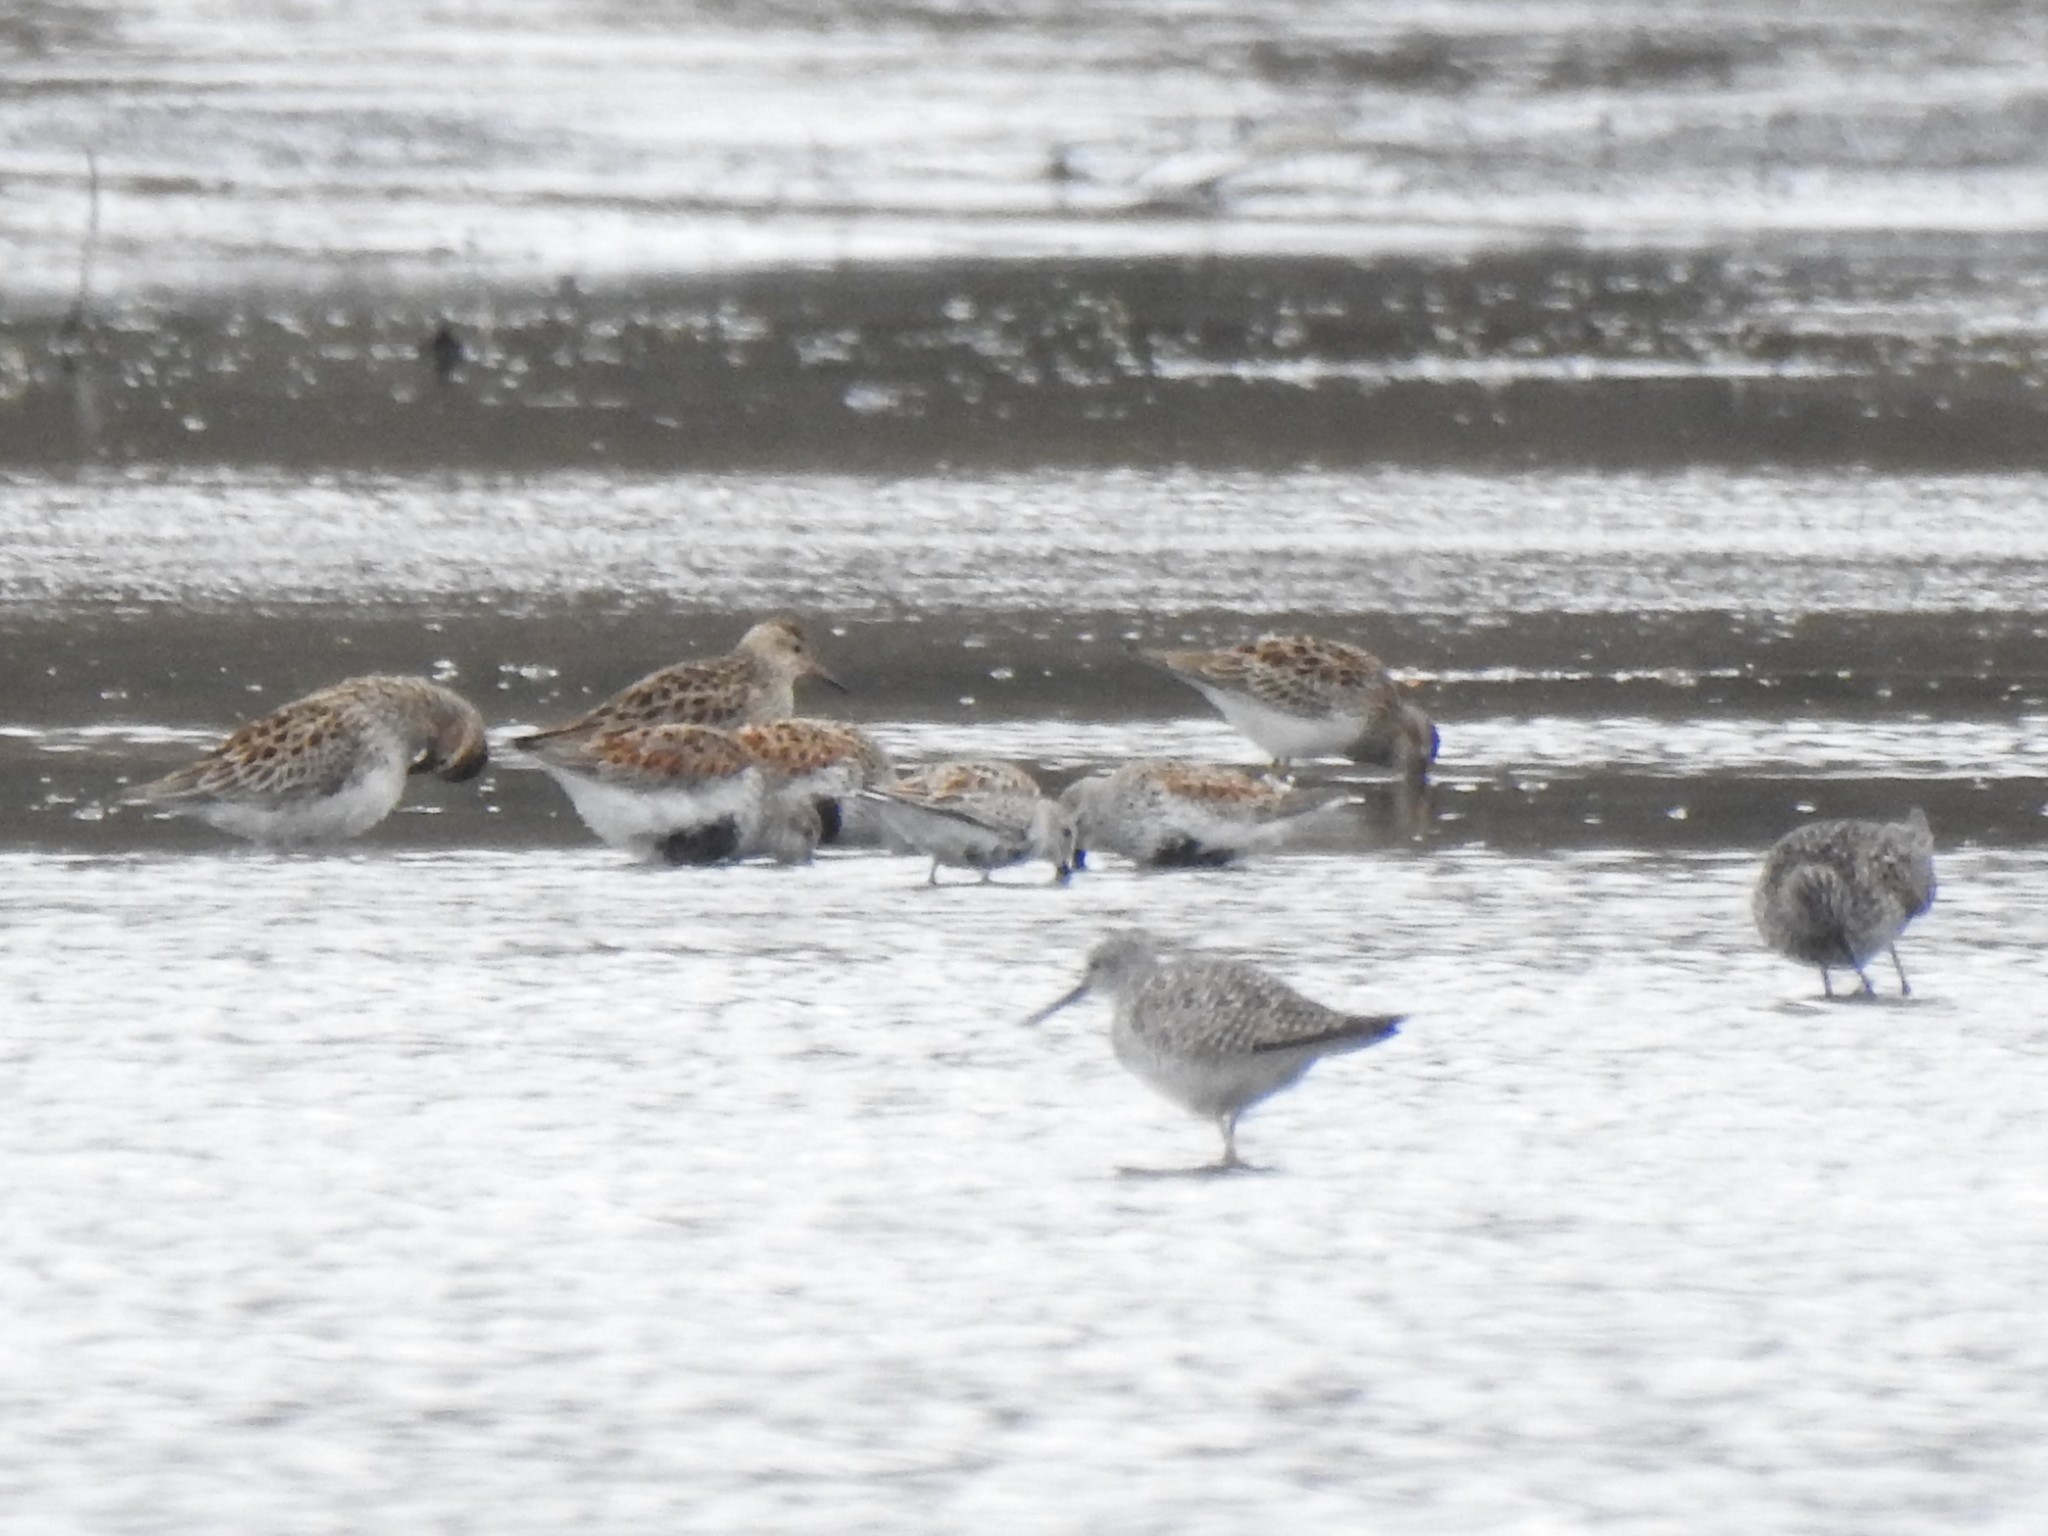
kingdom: Animalia
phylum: Chordata
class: Aves
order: Charadriiformes
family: Scolopacidae
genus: Calidris
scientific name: Calidris alpina
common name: Dunlin
